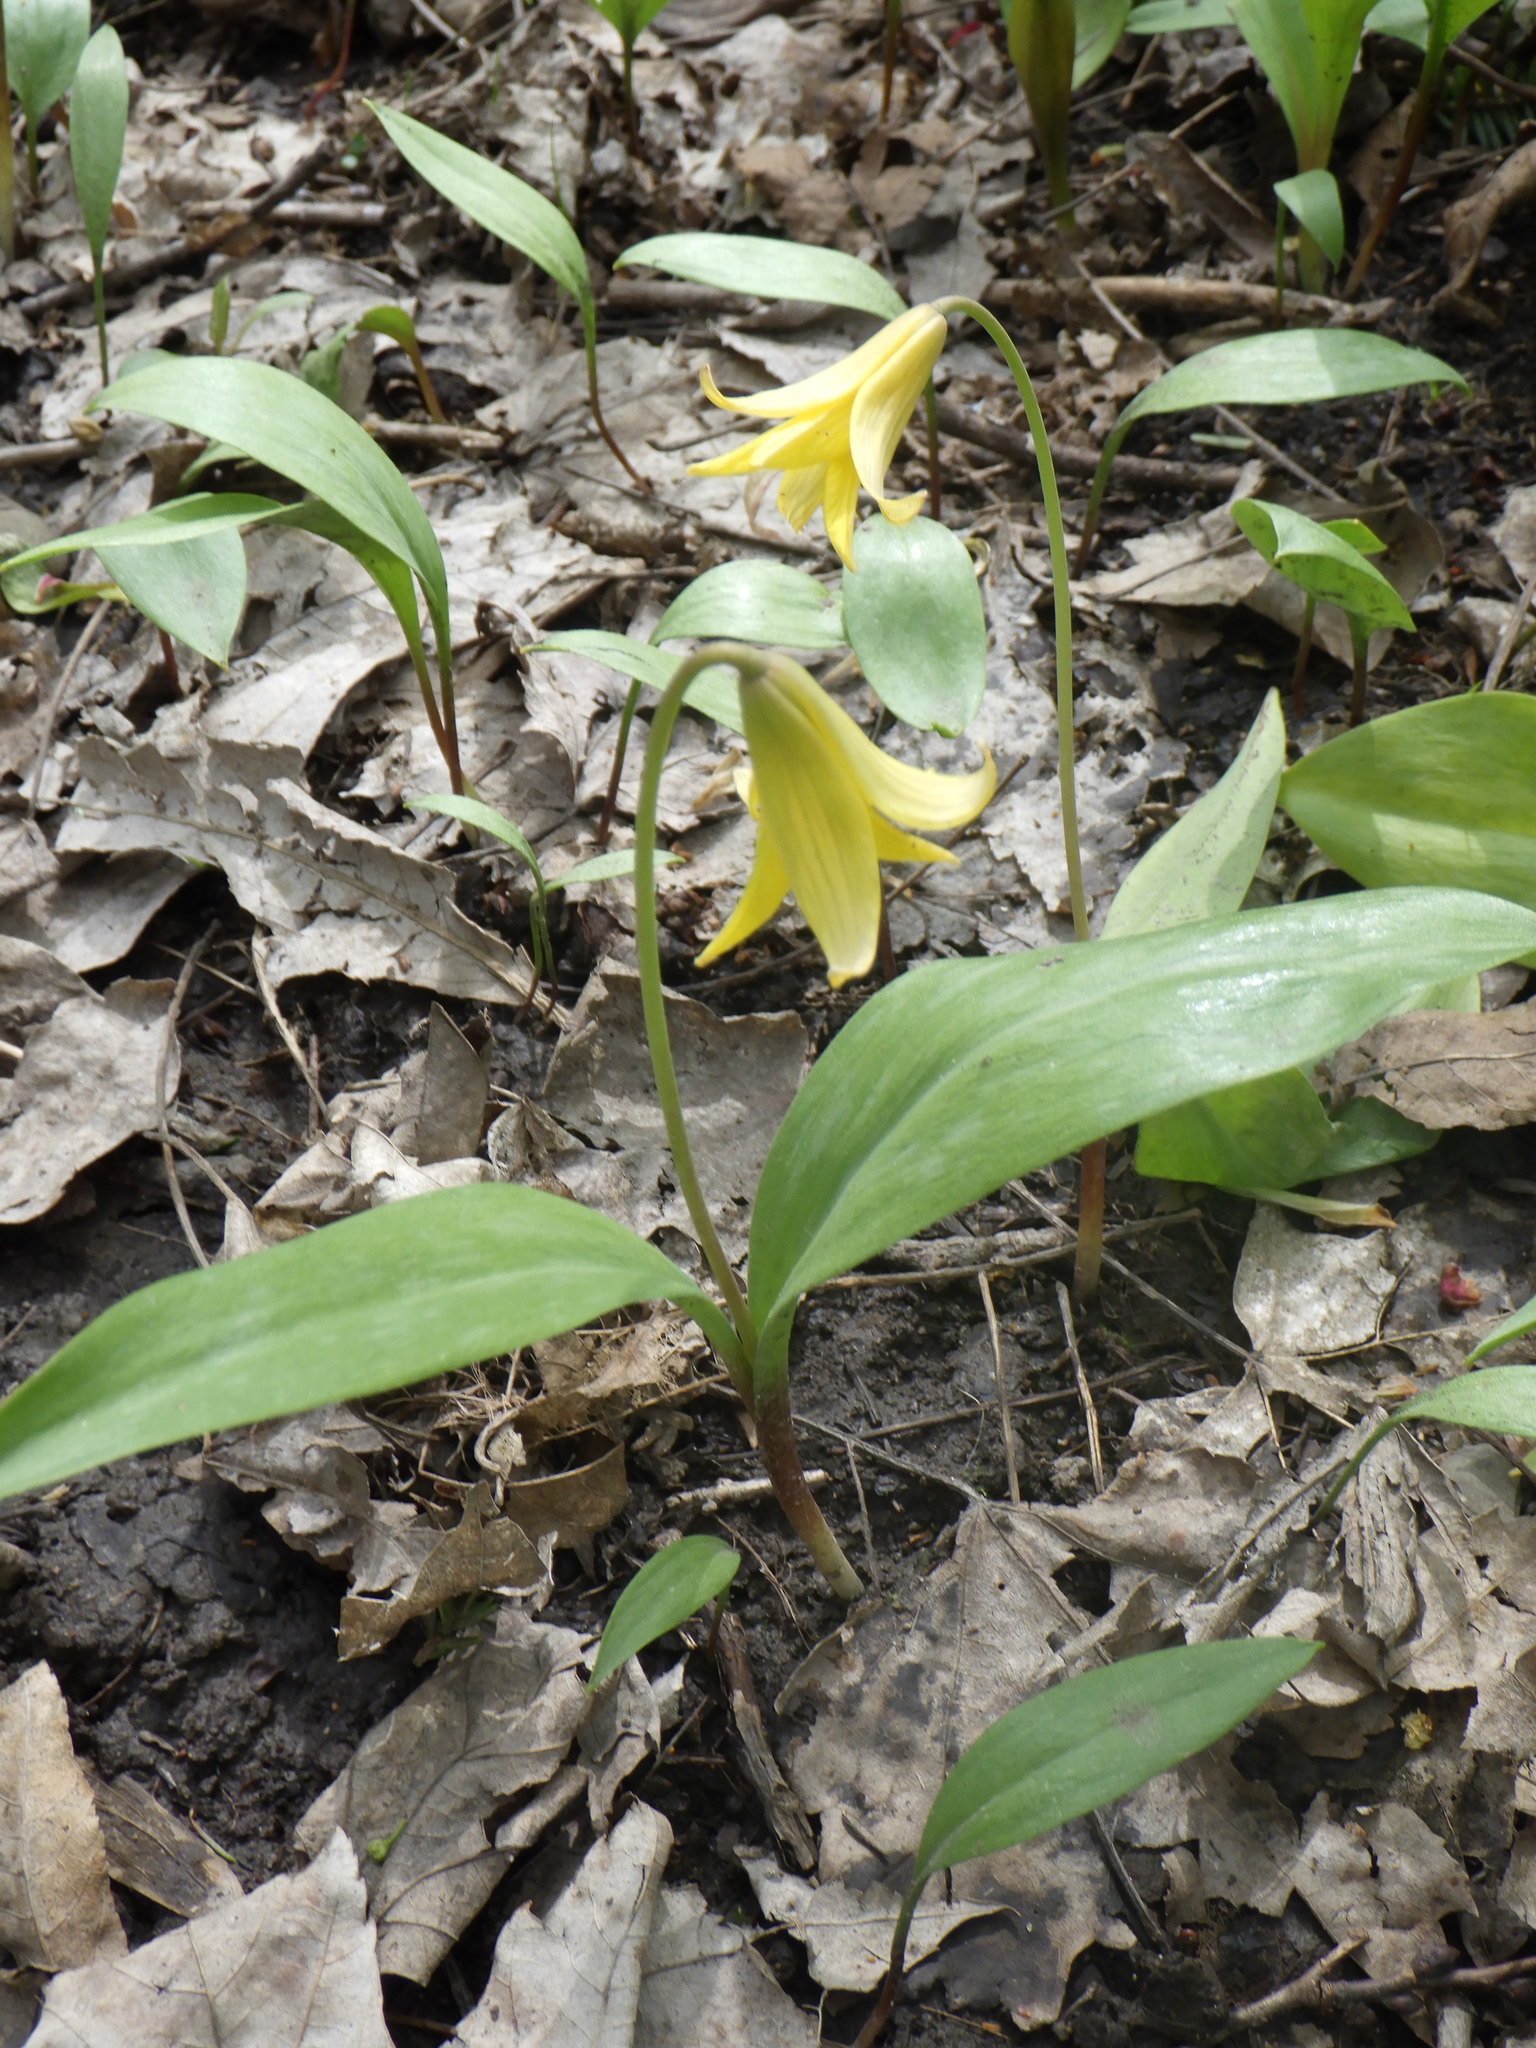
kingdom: Plantae
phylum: Tracheophyta
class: Liliopsida
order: Liliales
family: Liliaceae
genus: Erythronium
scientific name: Erythronium americanum
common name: Yellow adder's-tongue
